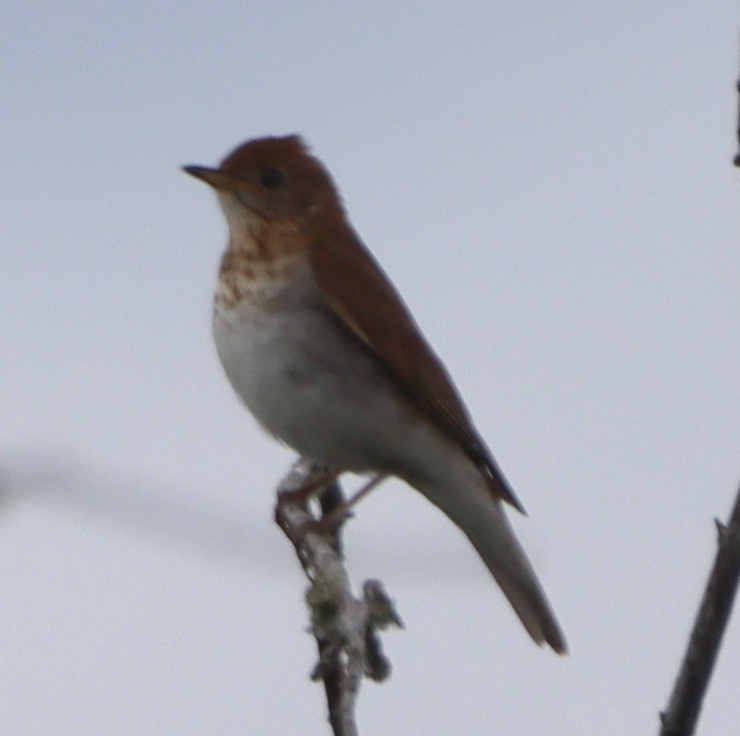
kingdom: Animalia
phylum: Chordata
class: Aves
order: Passeriformes
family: Turdidae
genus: Catharus
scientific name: Catharus fuscescens
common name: Veery
